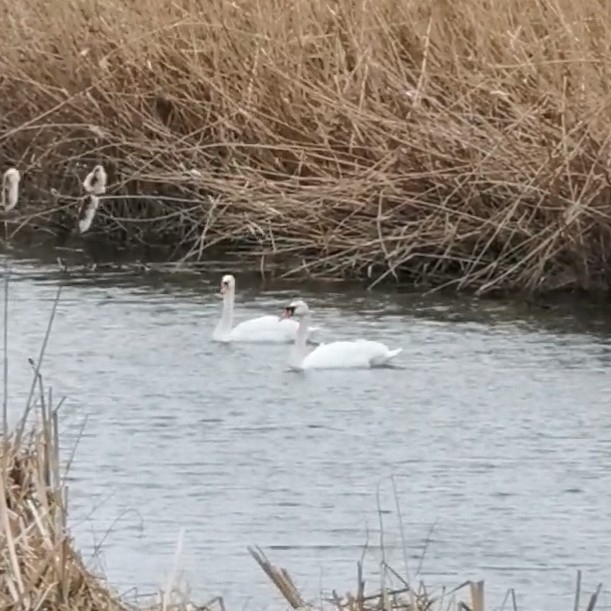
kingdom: Animalia
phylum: Chordata
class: Aves
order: Anseriformes
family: Anatidae
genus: Cygnus
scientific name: Cygnus olor
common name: Mute swan
